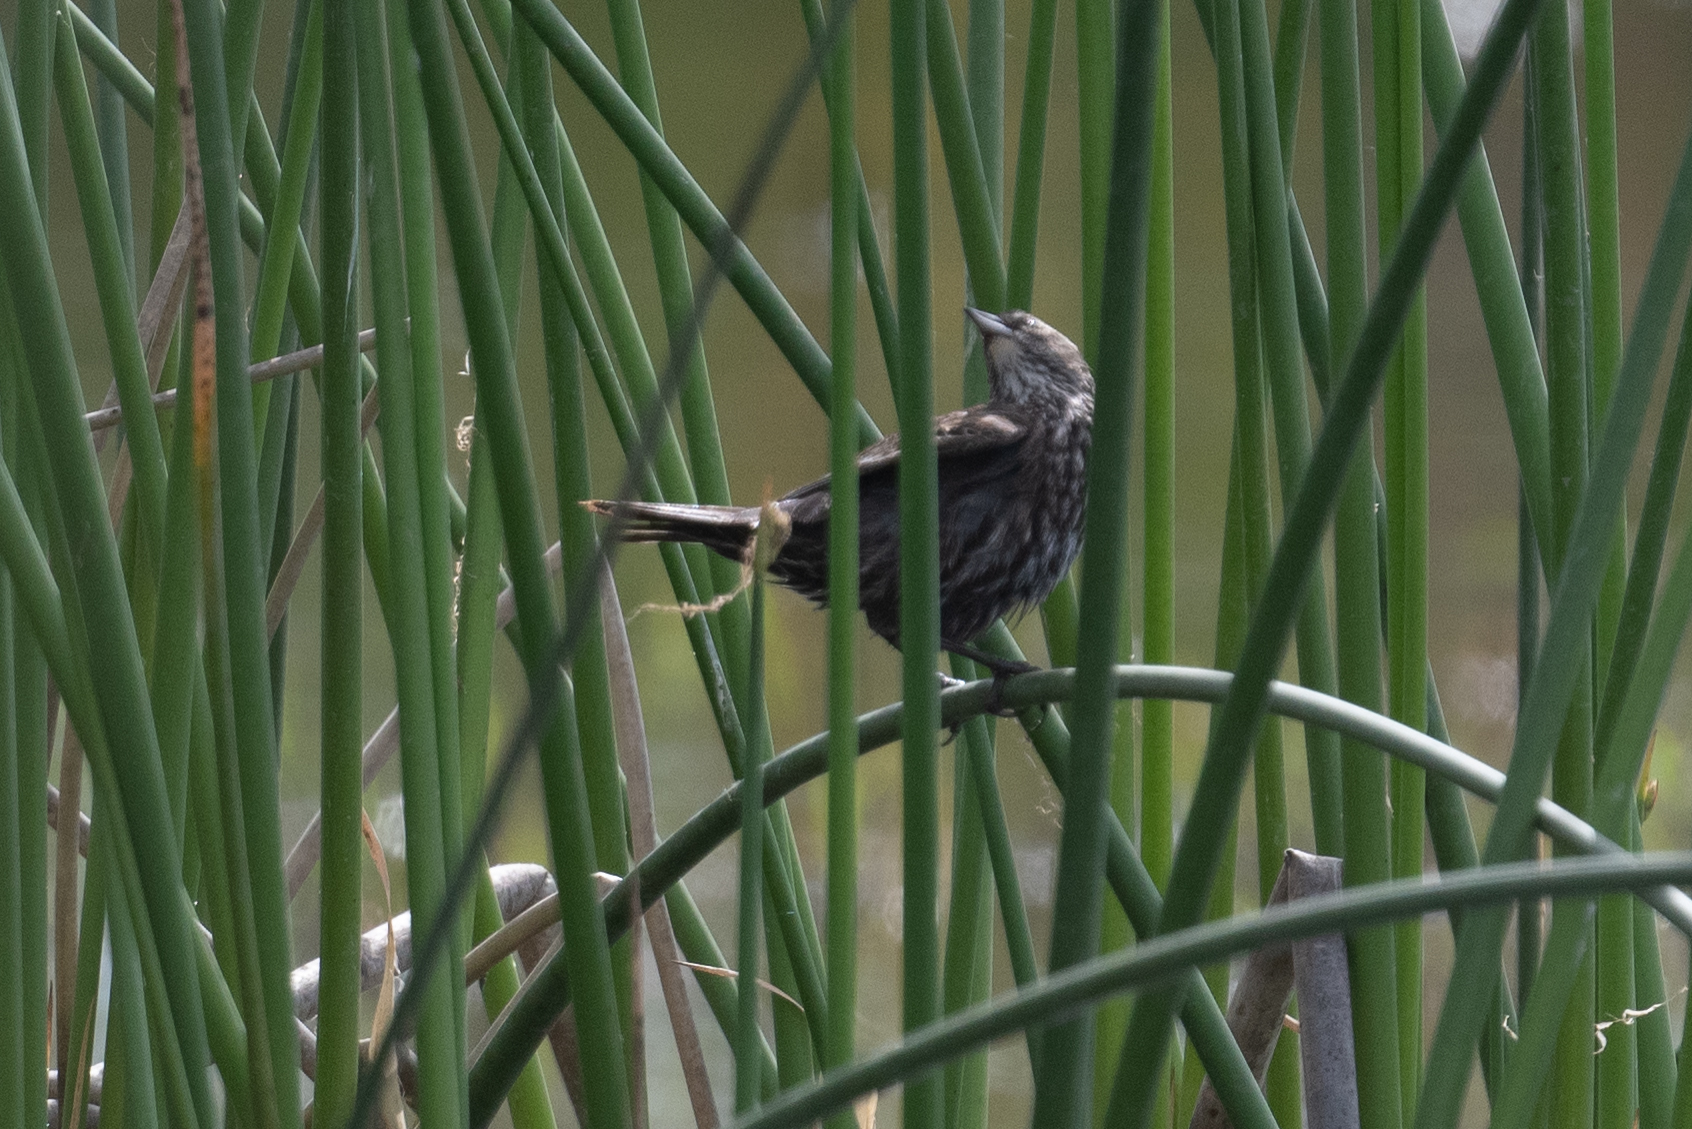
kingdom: Animalia
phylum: Chordata
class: Aves
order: Passeriformes
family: Icteridae
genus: Agelaius
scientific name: Agelaius phoeniceus
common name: Red-winged blackbird
